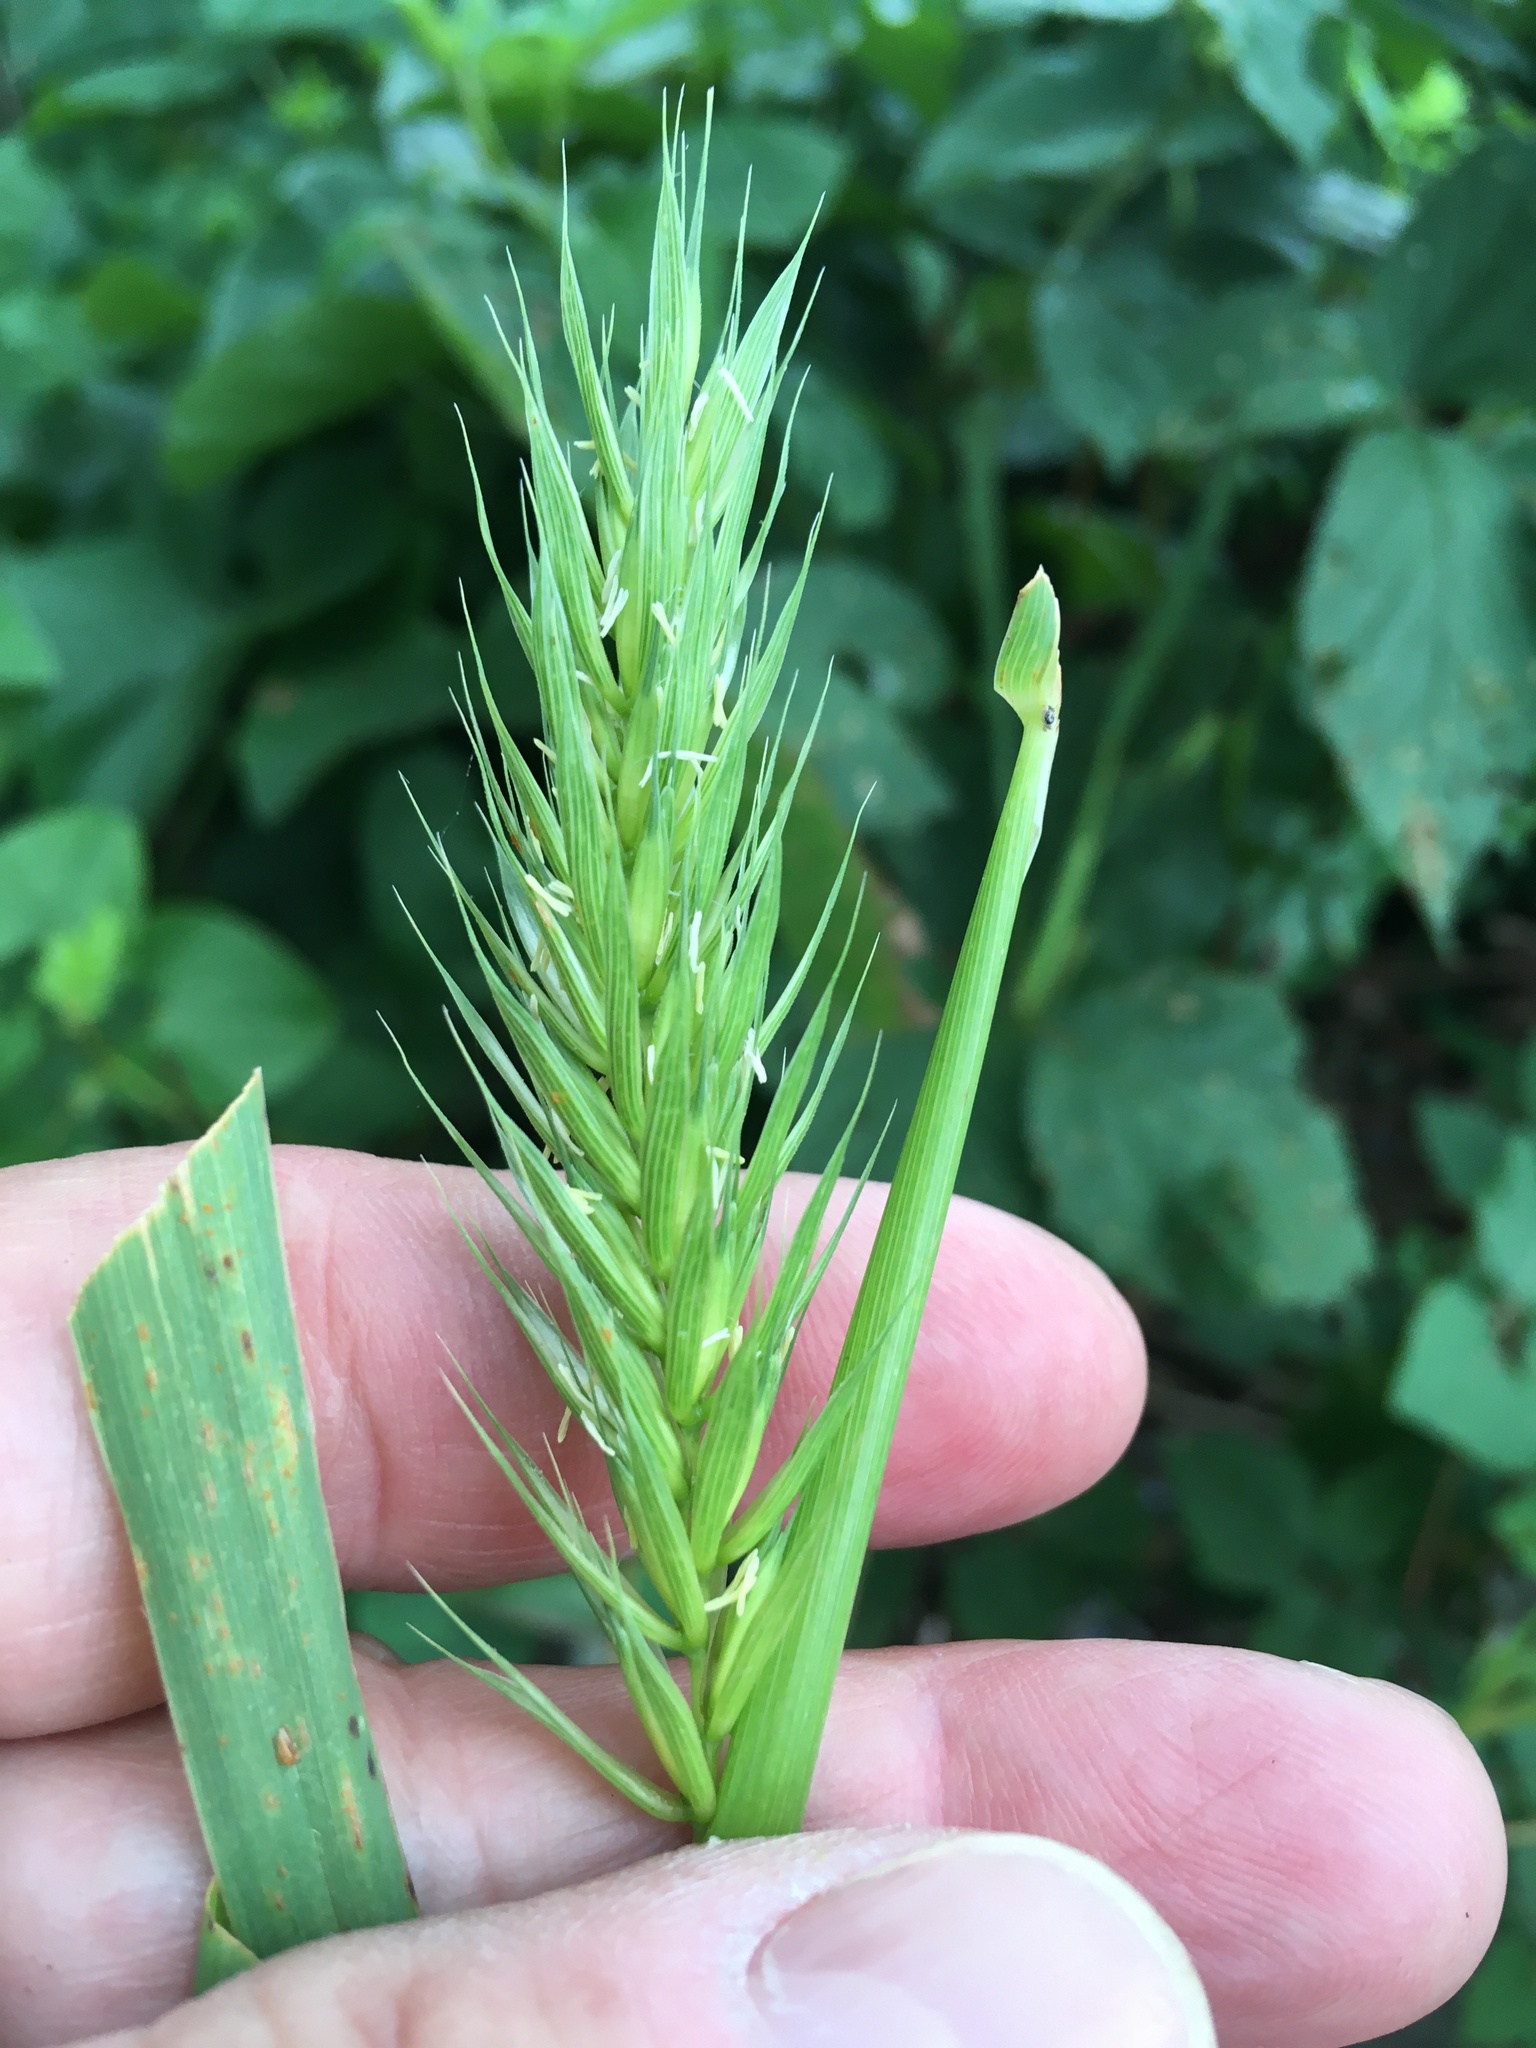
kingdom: Plantae
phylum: Tracheophyta
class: Liliopsida
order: Poales
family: Poaceae
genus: Elymus
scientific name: Elymus virginicus
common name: Common eastern wildrye
